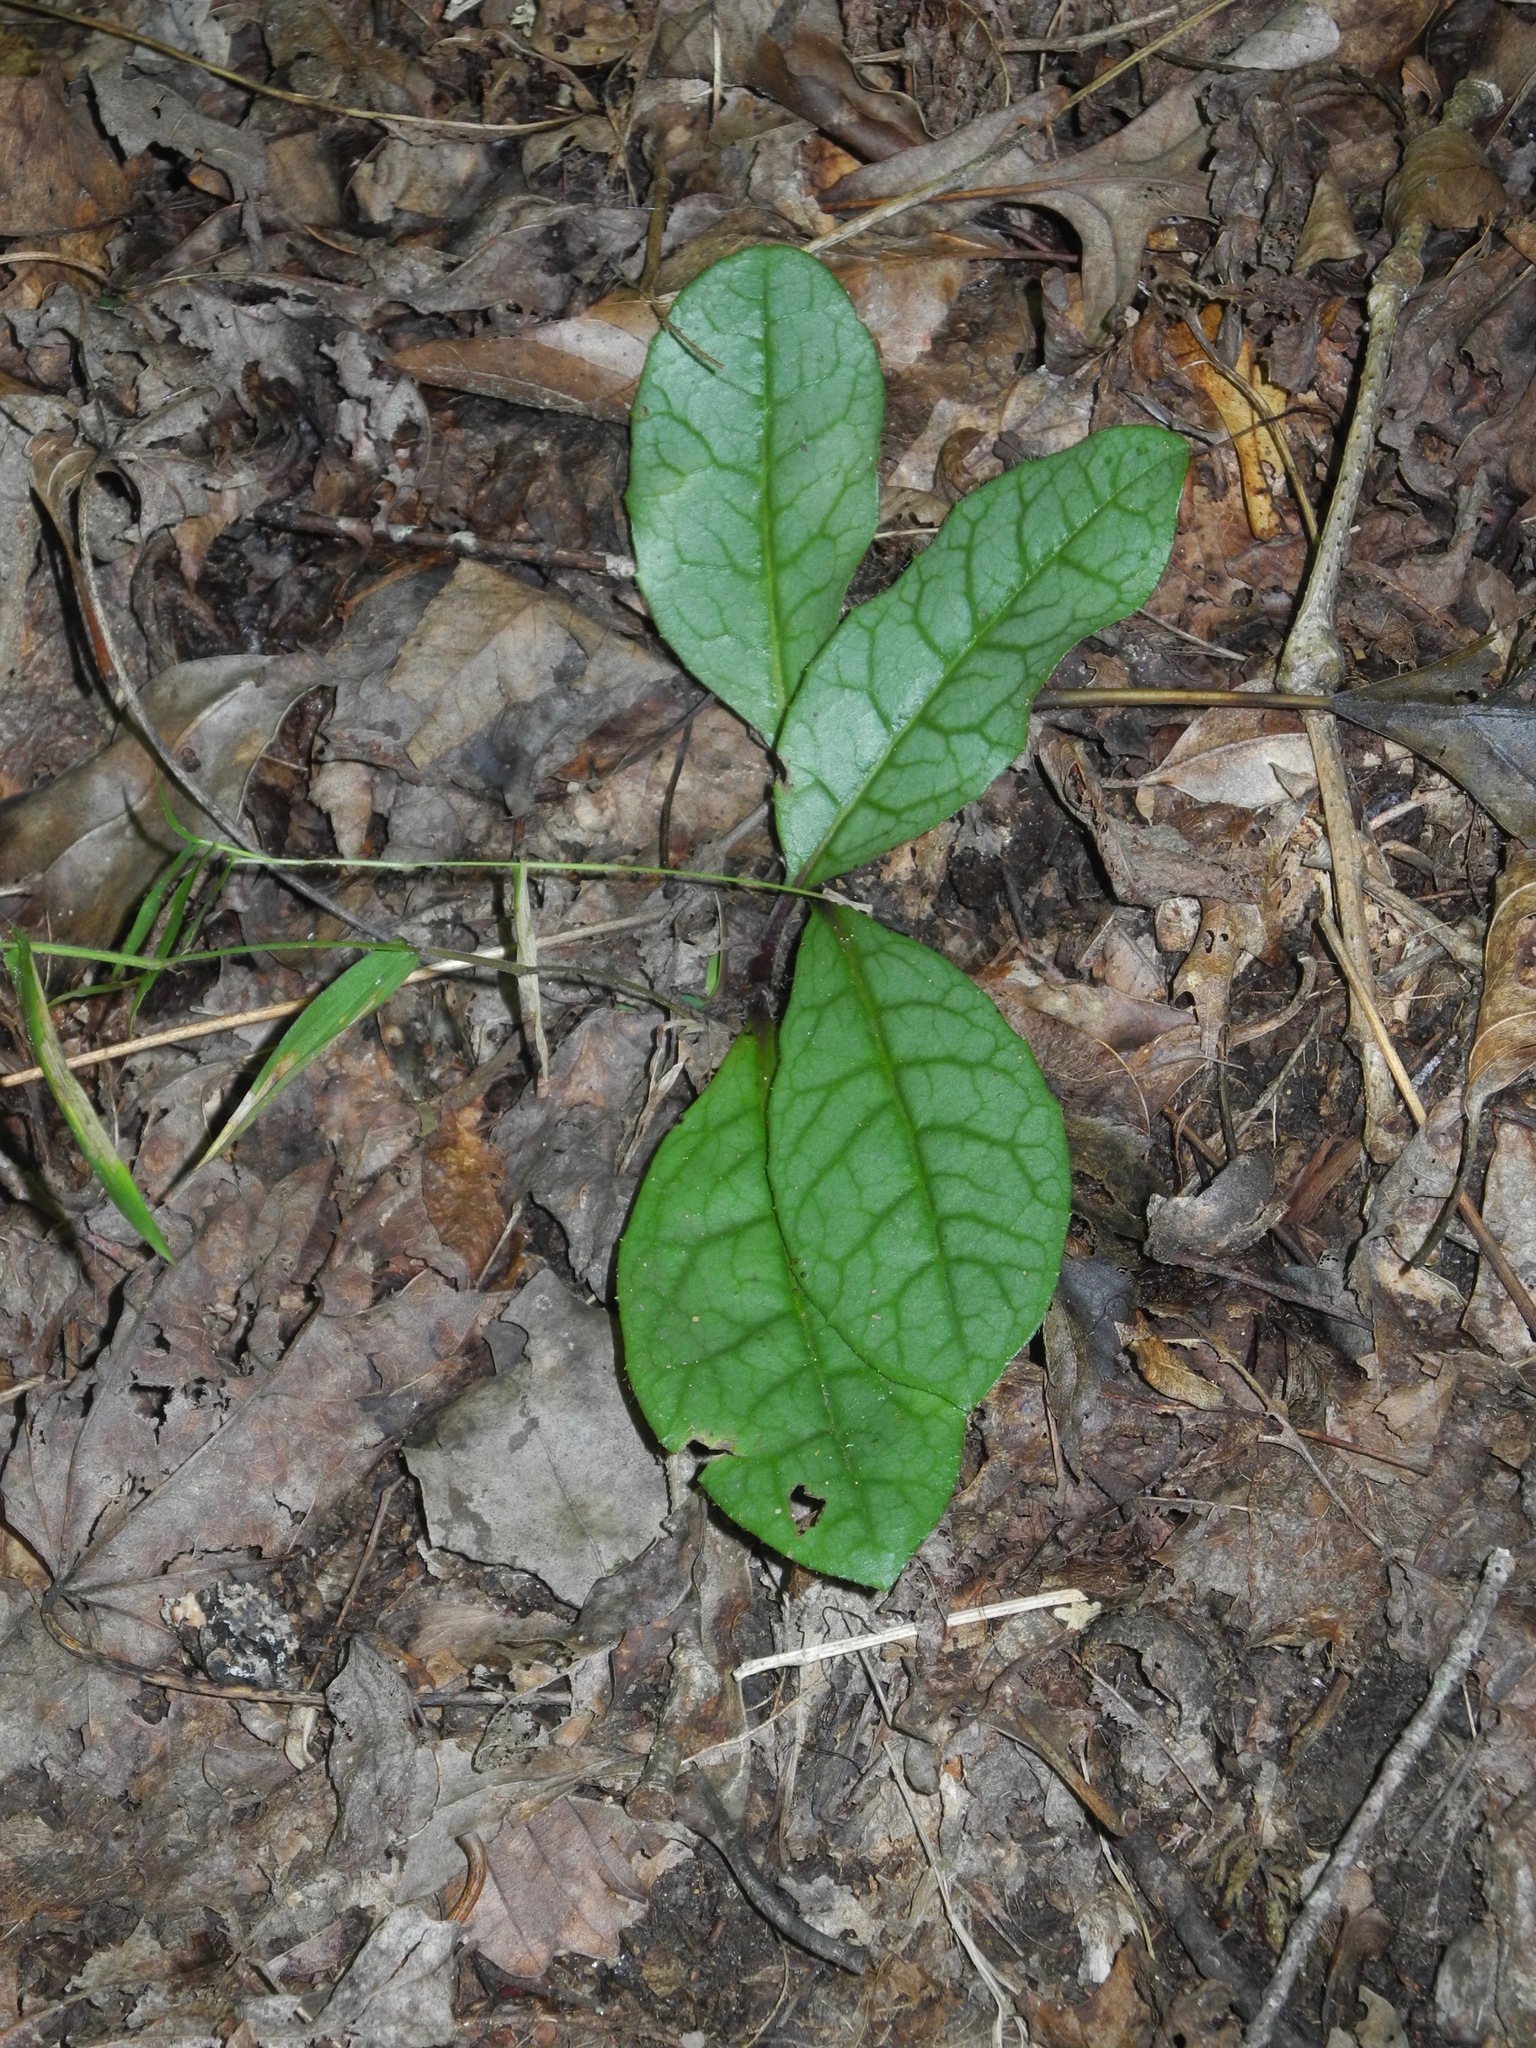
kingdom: Plantae
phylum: Tracheophyta
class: Magnoliopsida
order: Asterales
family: Asteraceae
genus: Hieracium
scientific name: Hieracium venosum
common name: Rattlesnake hawkweed
